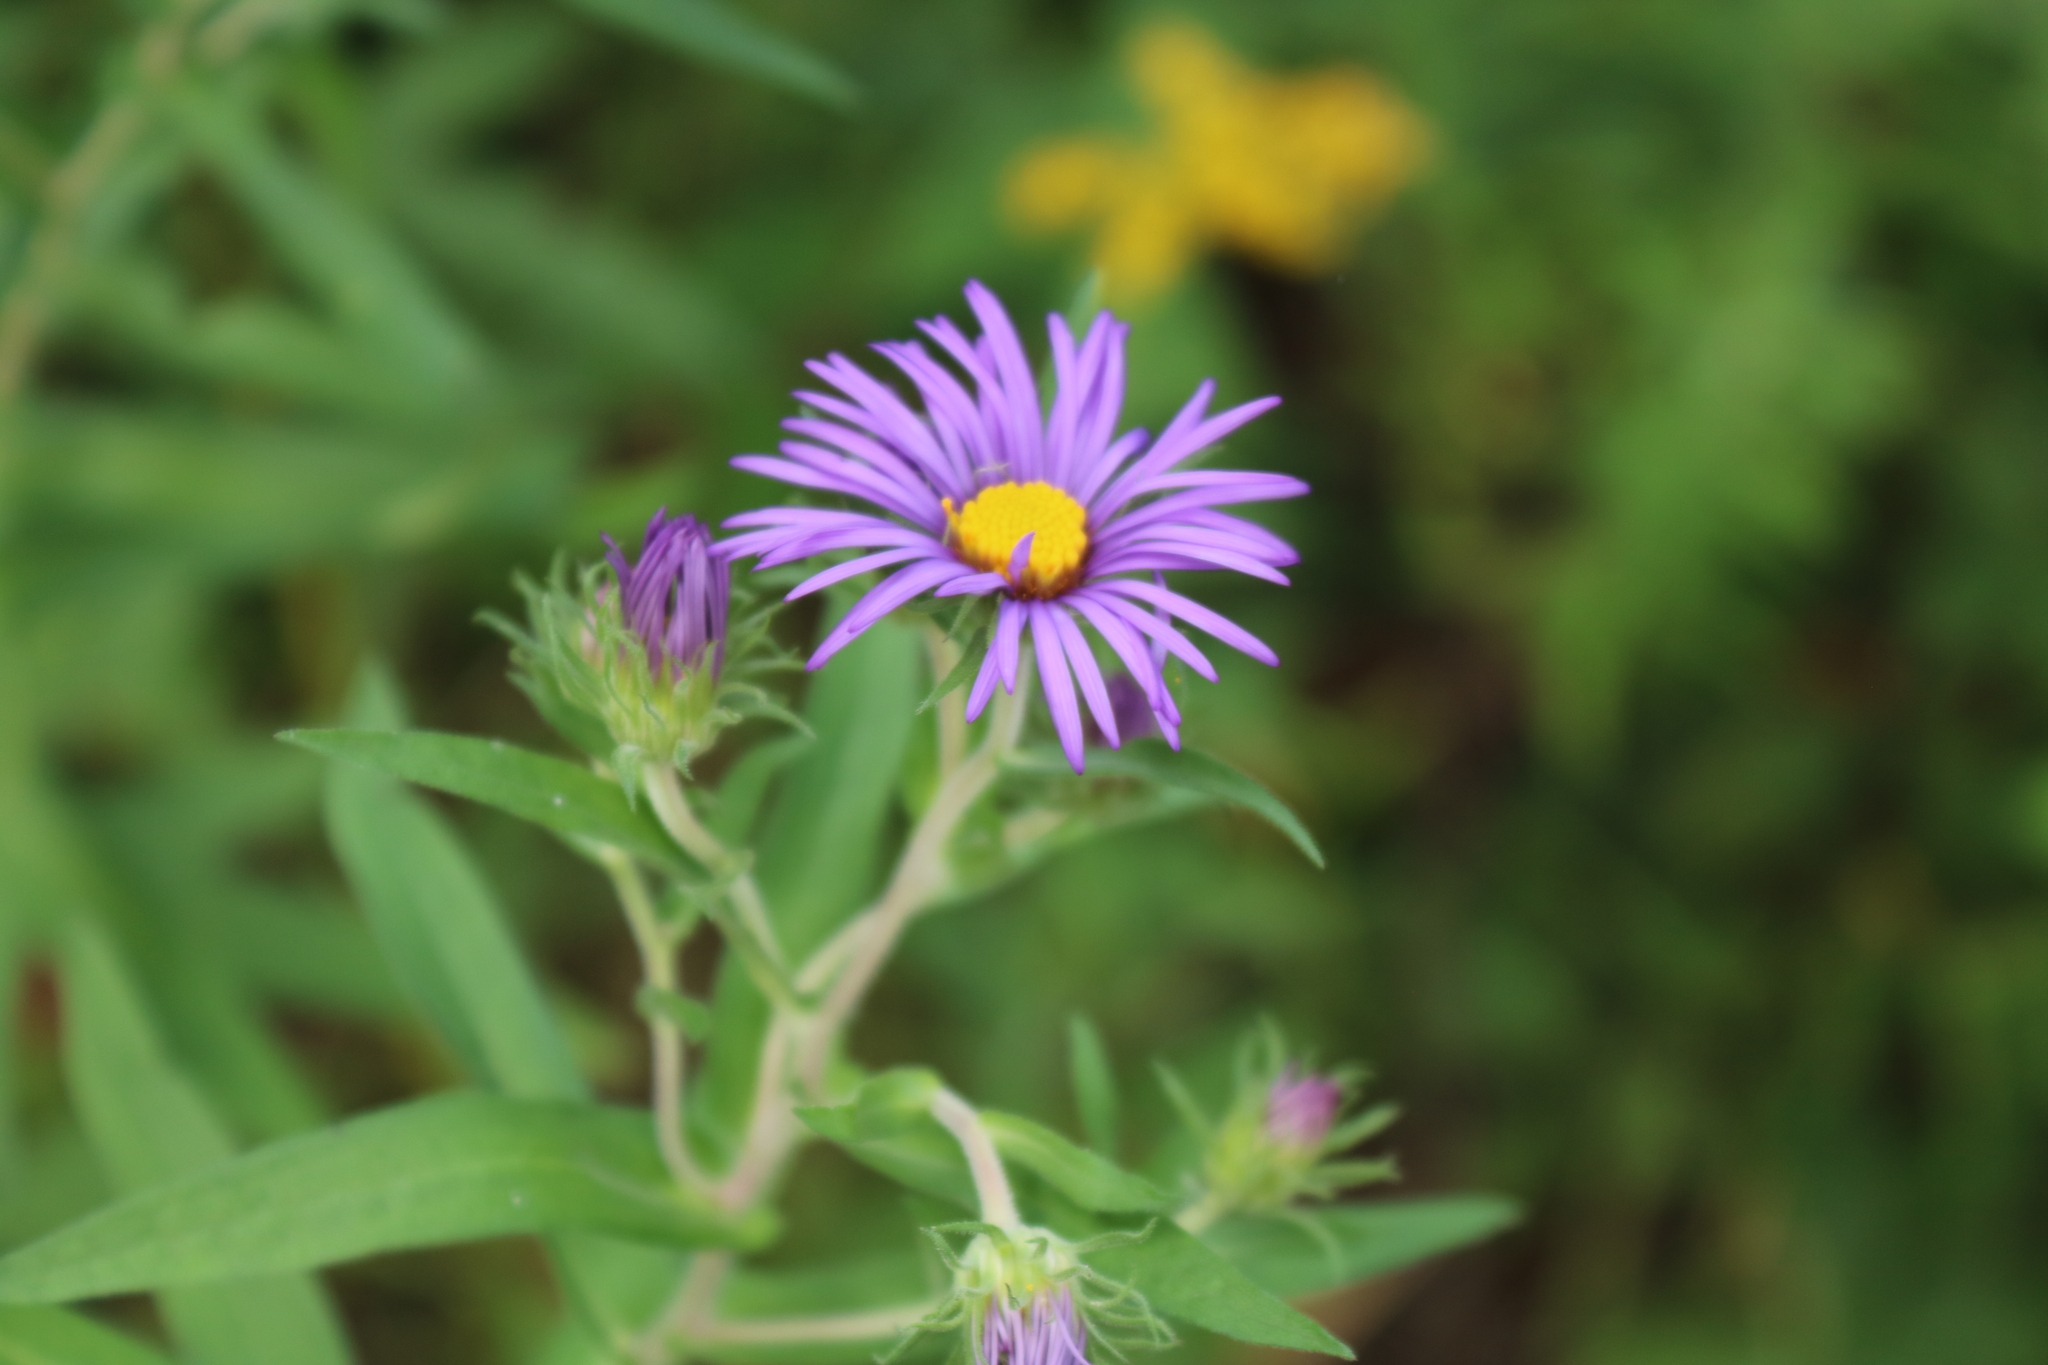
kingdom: Plantae
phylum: Tracheophyta
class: Magnoliopsida
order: Asterales
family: Asteraceae
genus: Symphyotrichum
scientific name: Symphyotrichum novae-angliae
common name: Michaelmas daisy
